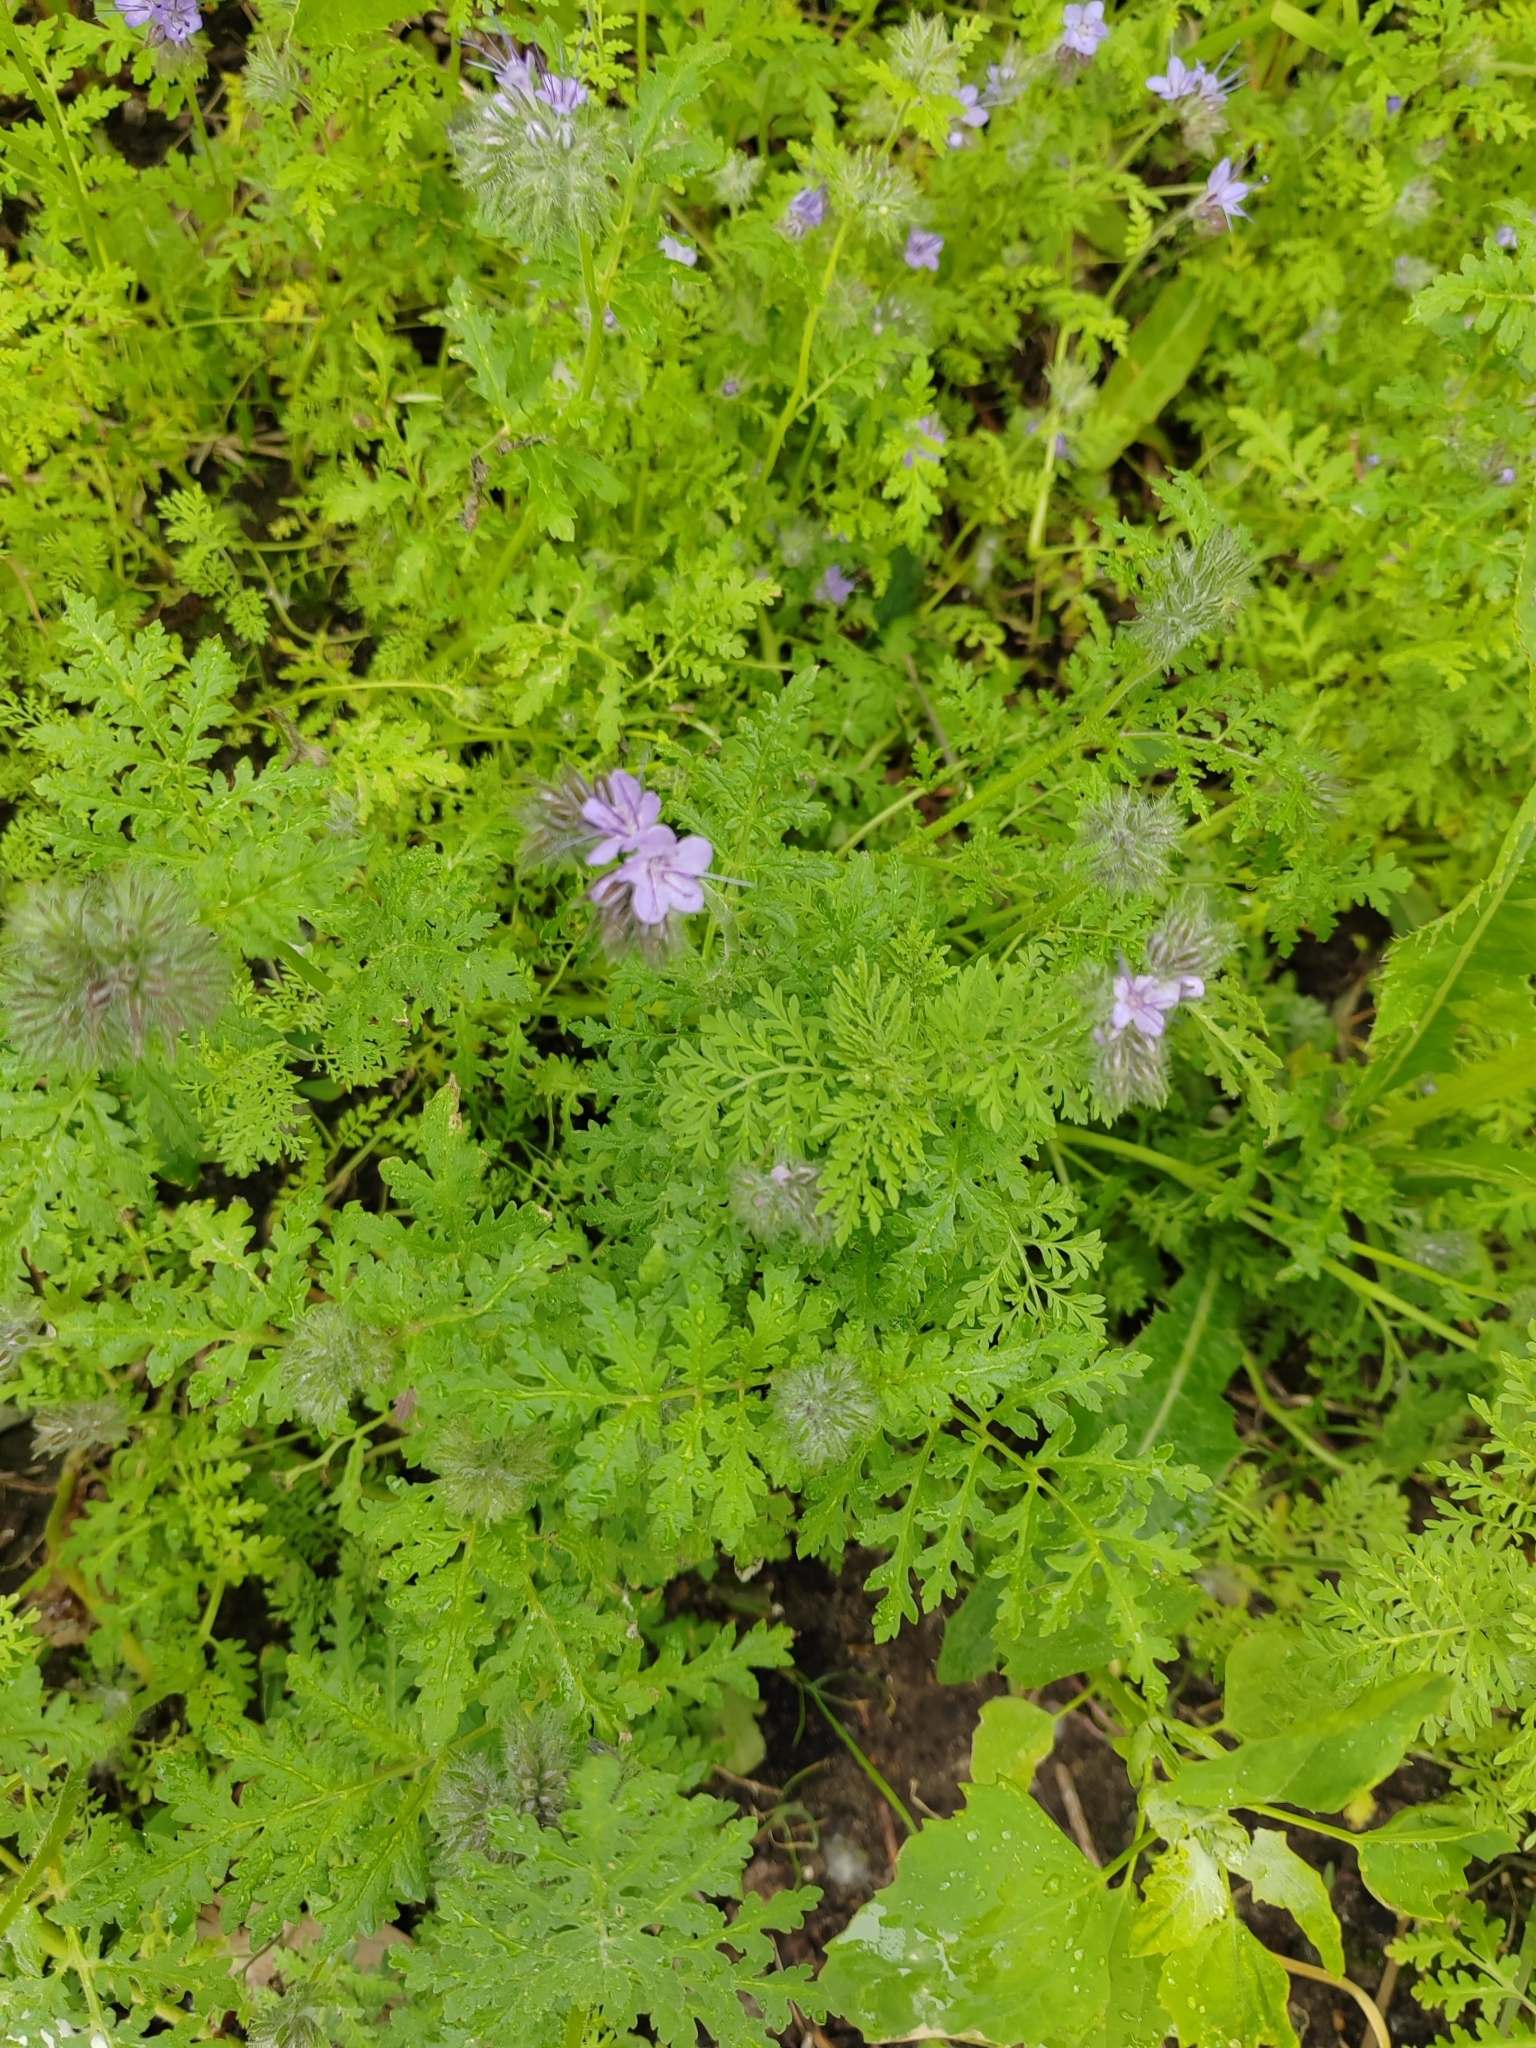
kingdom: Plantae
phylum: Tracheophyta
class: Magnoliopsida
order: Boraginales
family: Hydrophyllaceae
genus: Phacelia
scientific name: Phacelia tanacetifolia
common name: Phacelia
